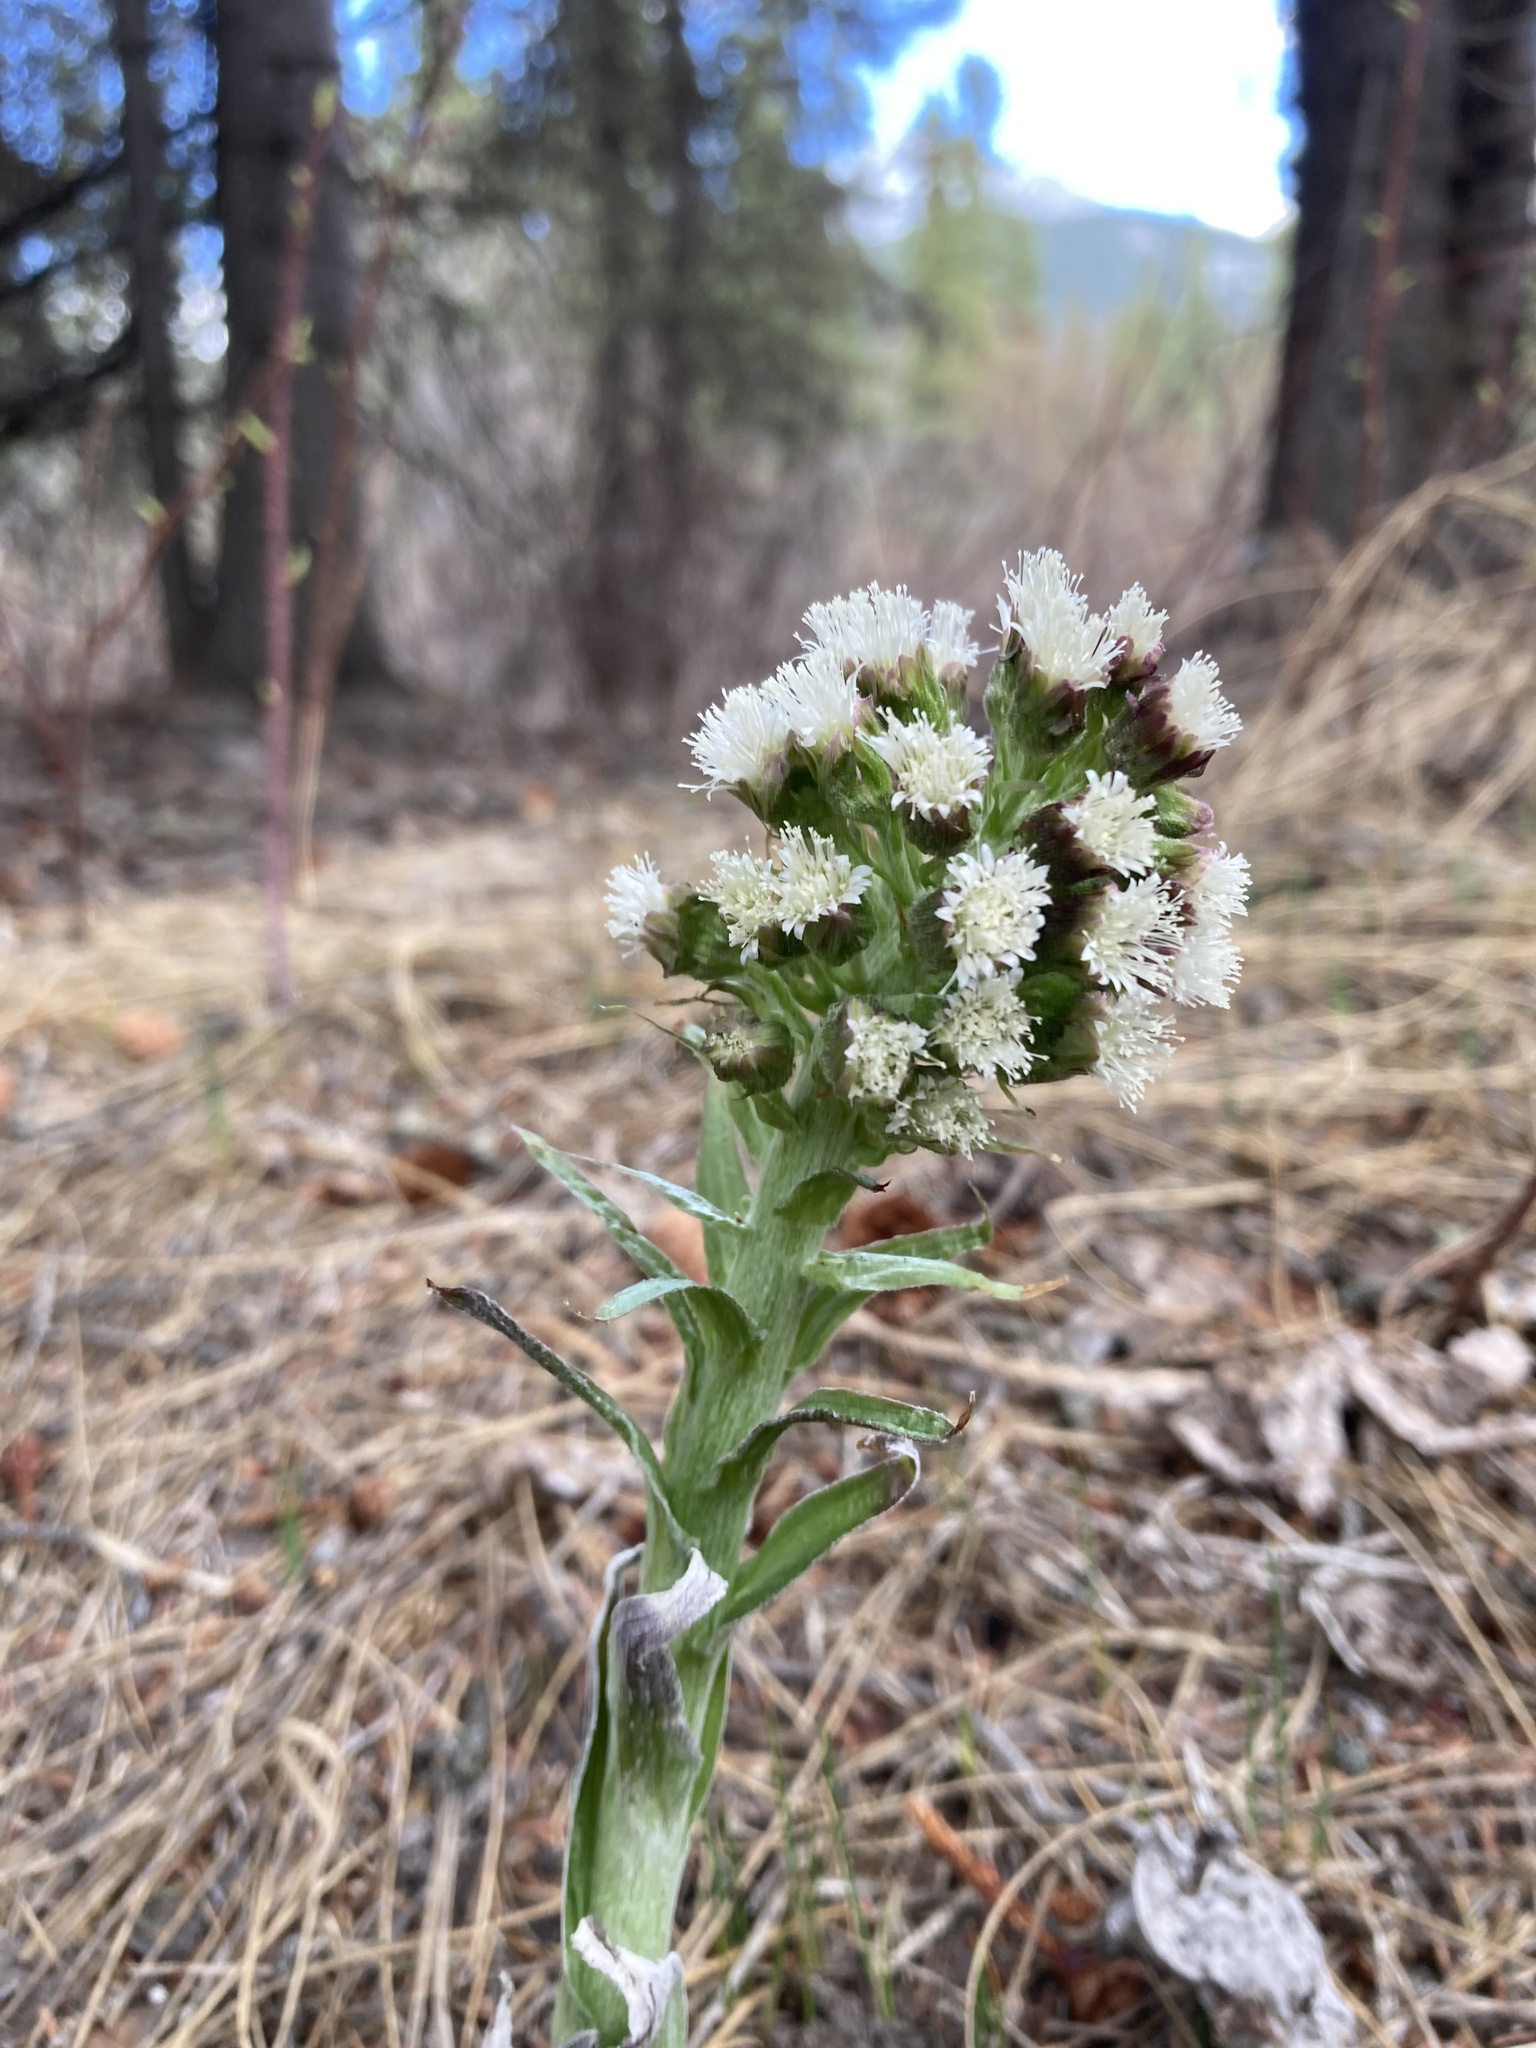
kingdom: Plantae
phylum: Tracheophyta
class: Magnoliopsida
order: Asterales
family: Asteraceae
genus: Petasites
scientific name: Petasites frigidus
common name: Arctic butterbur
